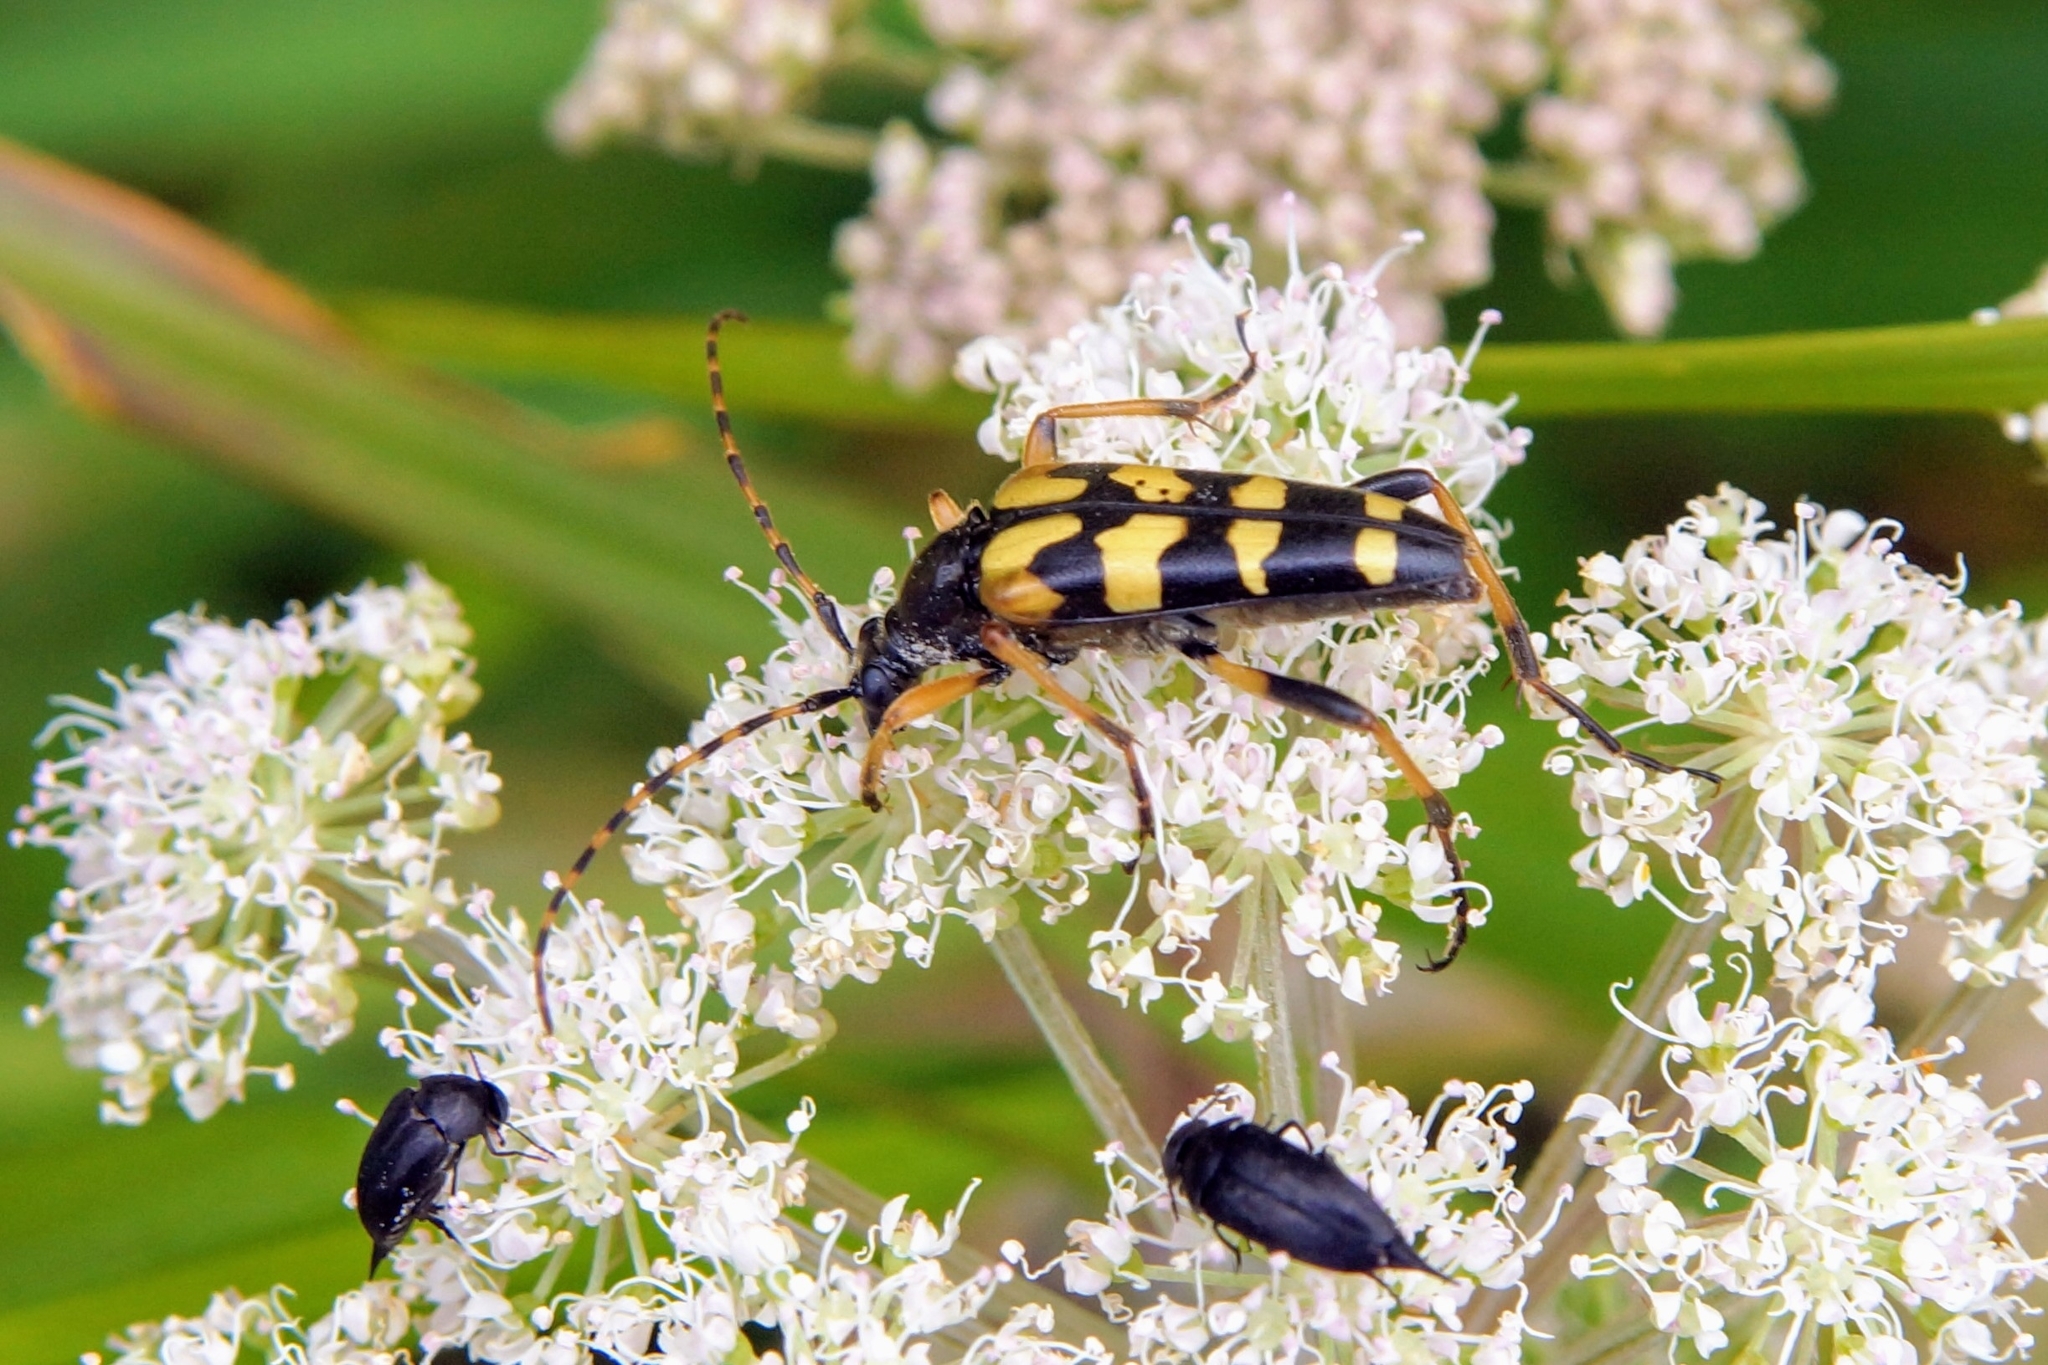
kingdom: Animalia
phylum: Arthropoda
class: Insecta
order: Coleoptera
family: Cerambycidae
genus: Rutpela
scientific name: Rutpela maculata
